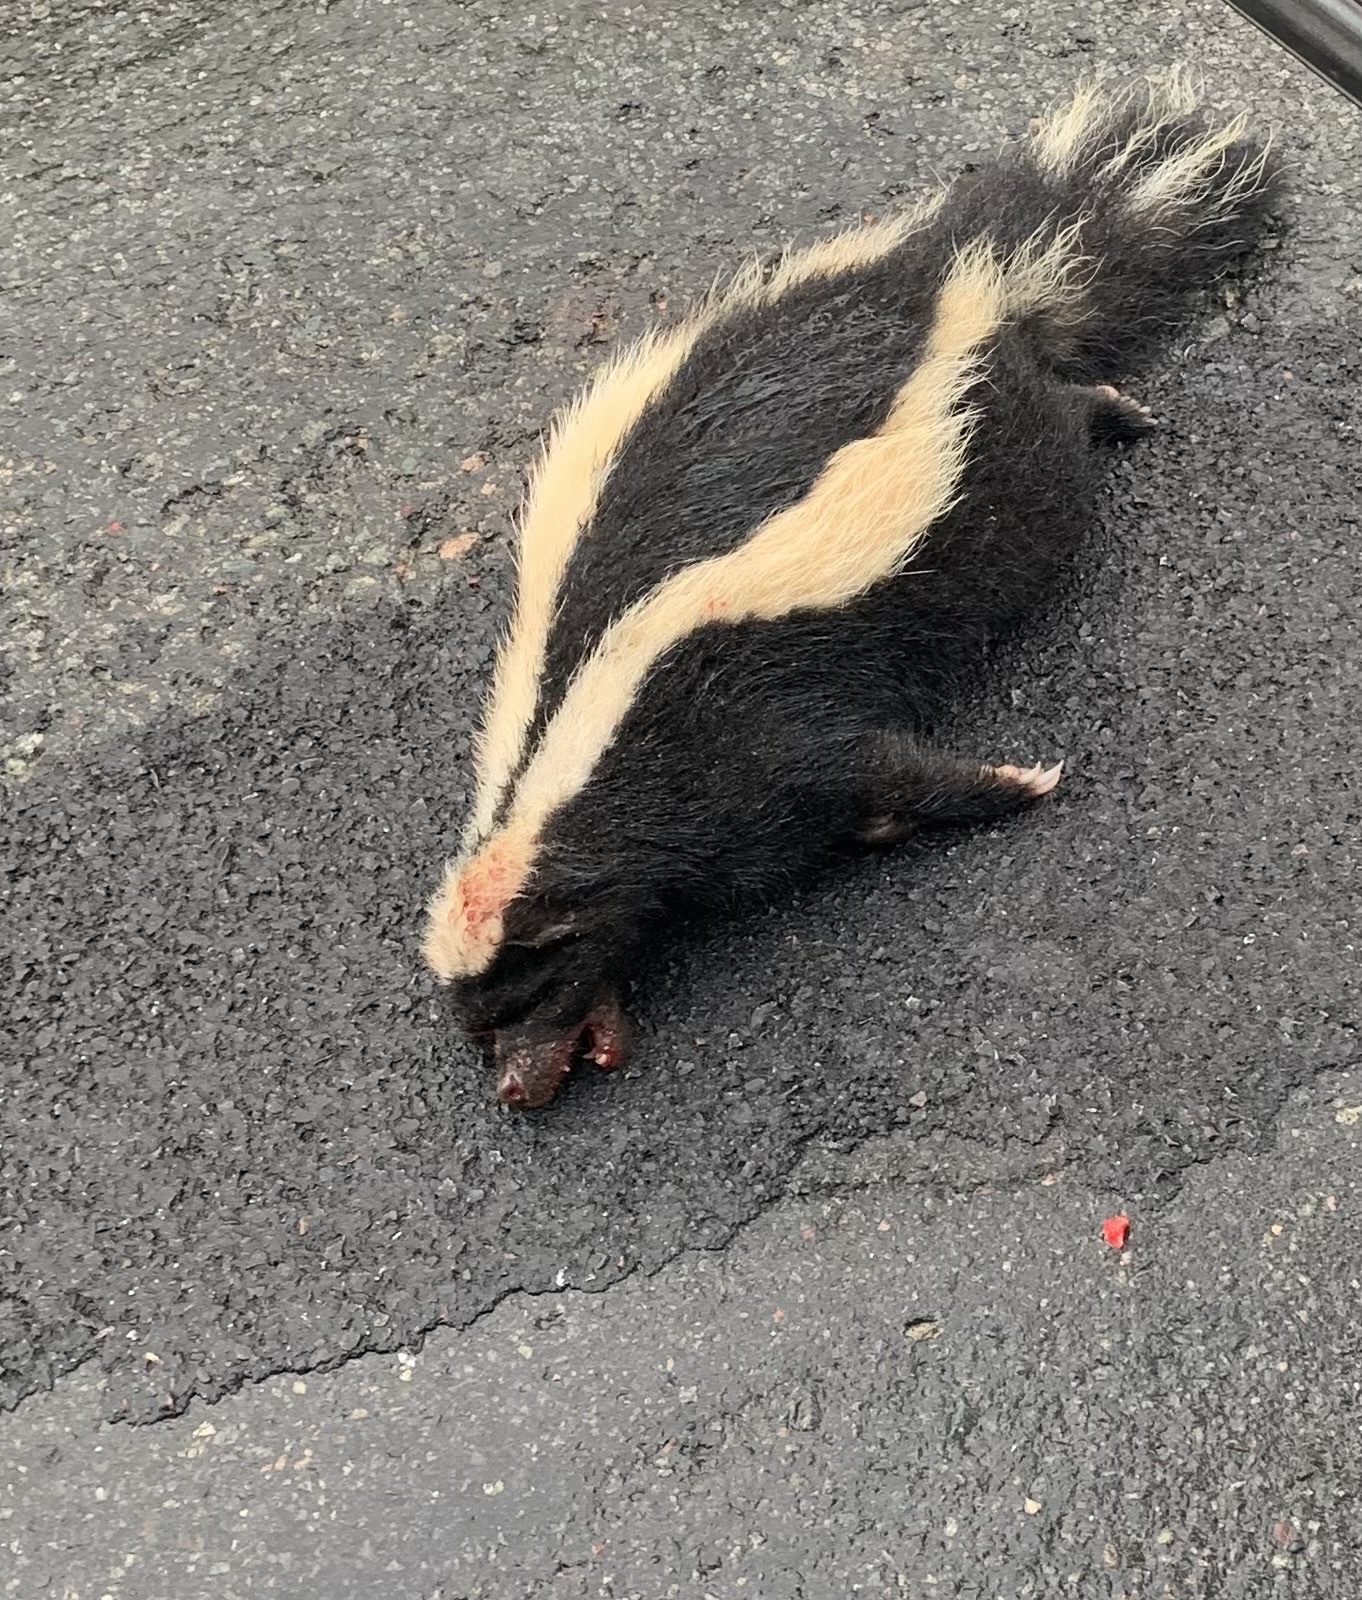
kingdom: Animalia
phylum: Chordata
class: Mammalia
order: Carnivora
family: Mephitidae
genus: Mephitis
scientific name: Mephitis mephitis
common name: Striped skunk
